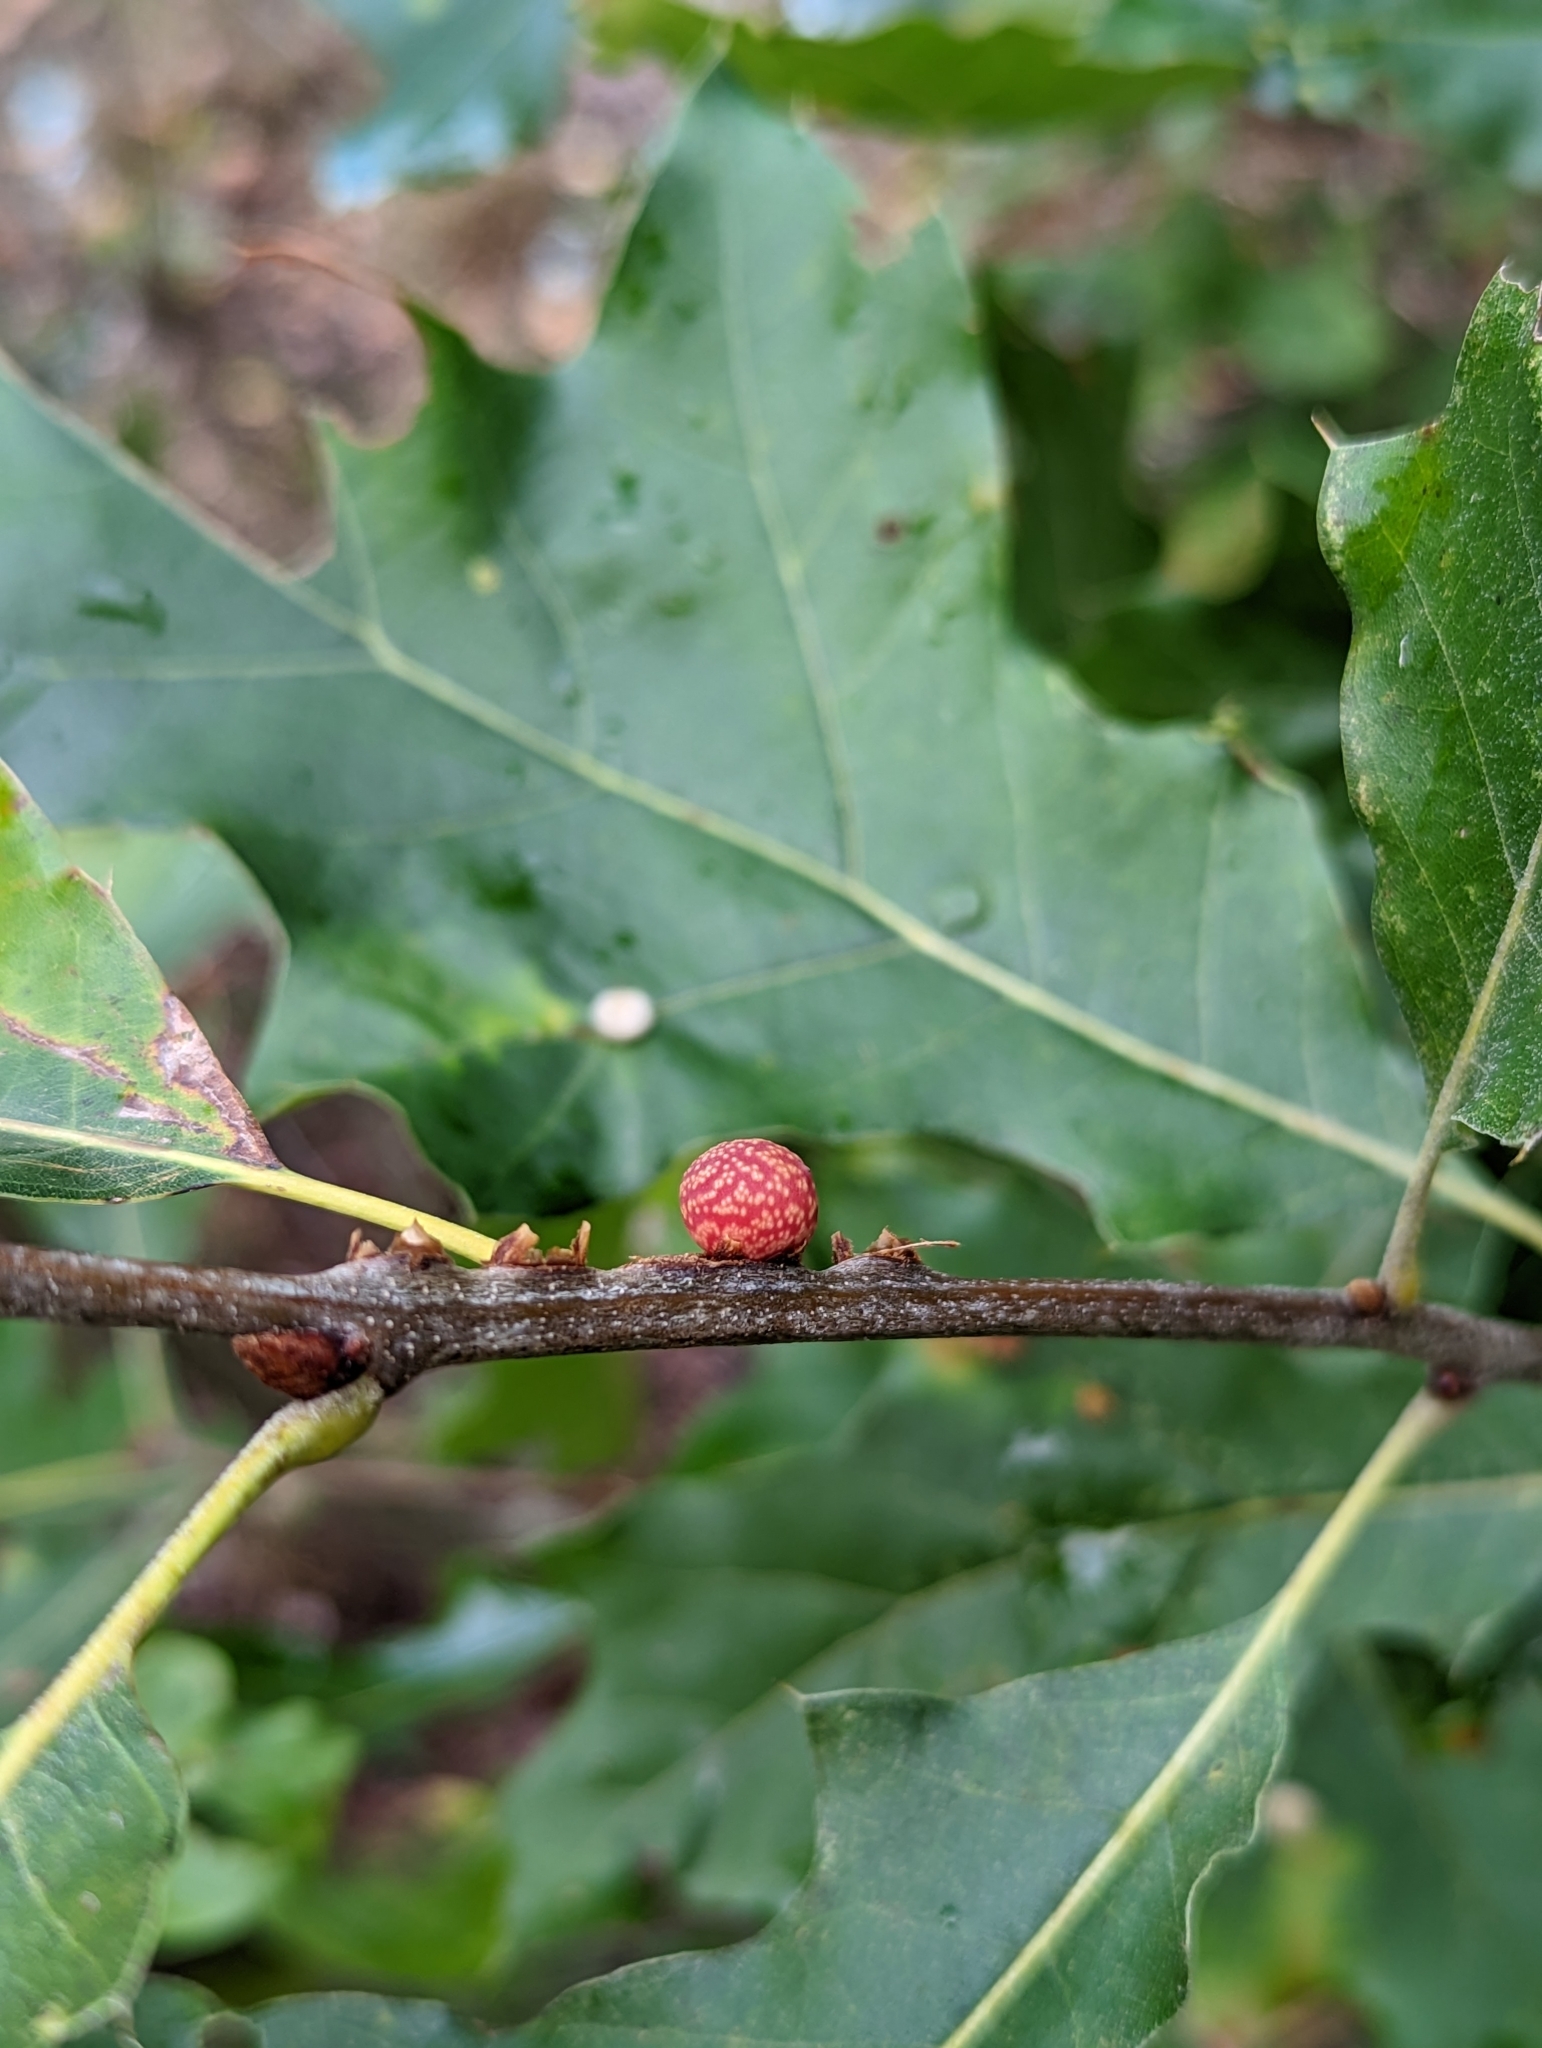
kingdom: Animalia
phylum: Arthropoda
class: Insecta
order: Hymenoptera
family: Cynipidae
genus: Kokkocynips
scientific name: Kokkocynips imbricariae
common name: Banded bullet gall wasp
